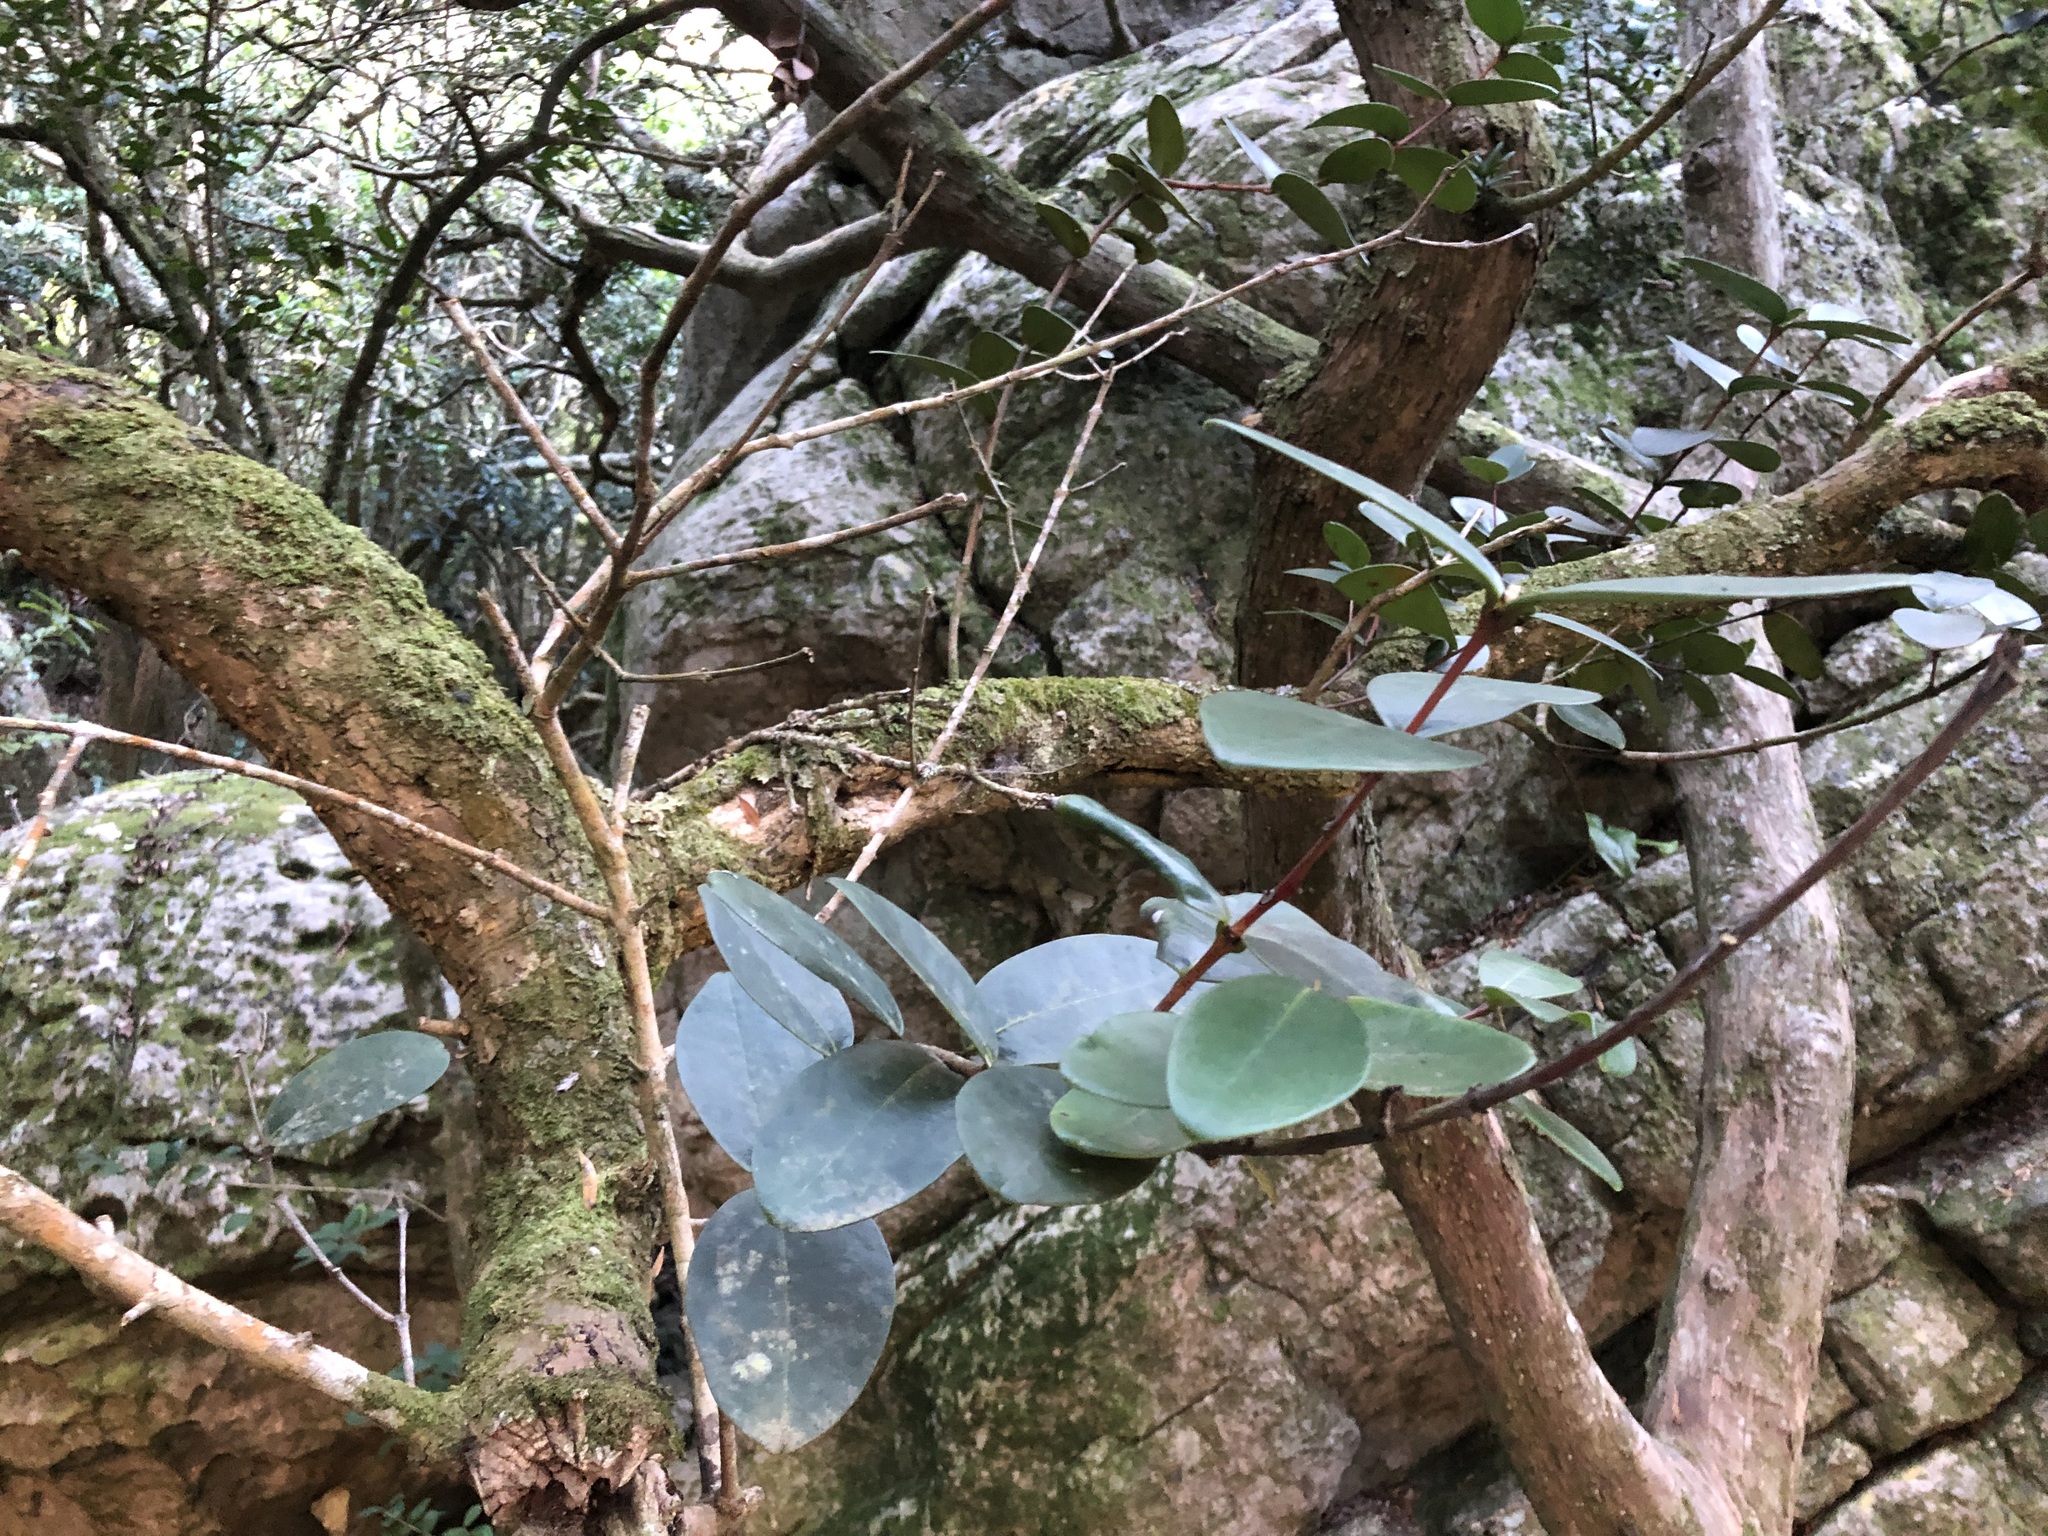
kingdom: Plantae
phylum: Tracheophyta
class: Magnoliopsida
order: Celastrales
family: Celastraceae
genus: Maurocenia
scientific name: Maurocenia frangula
